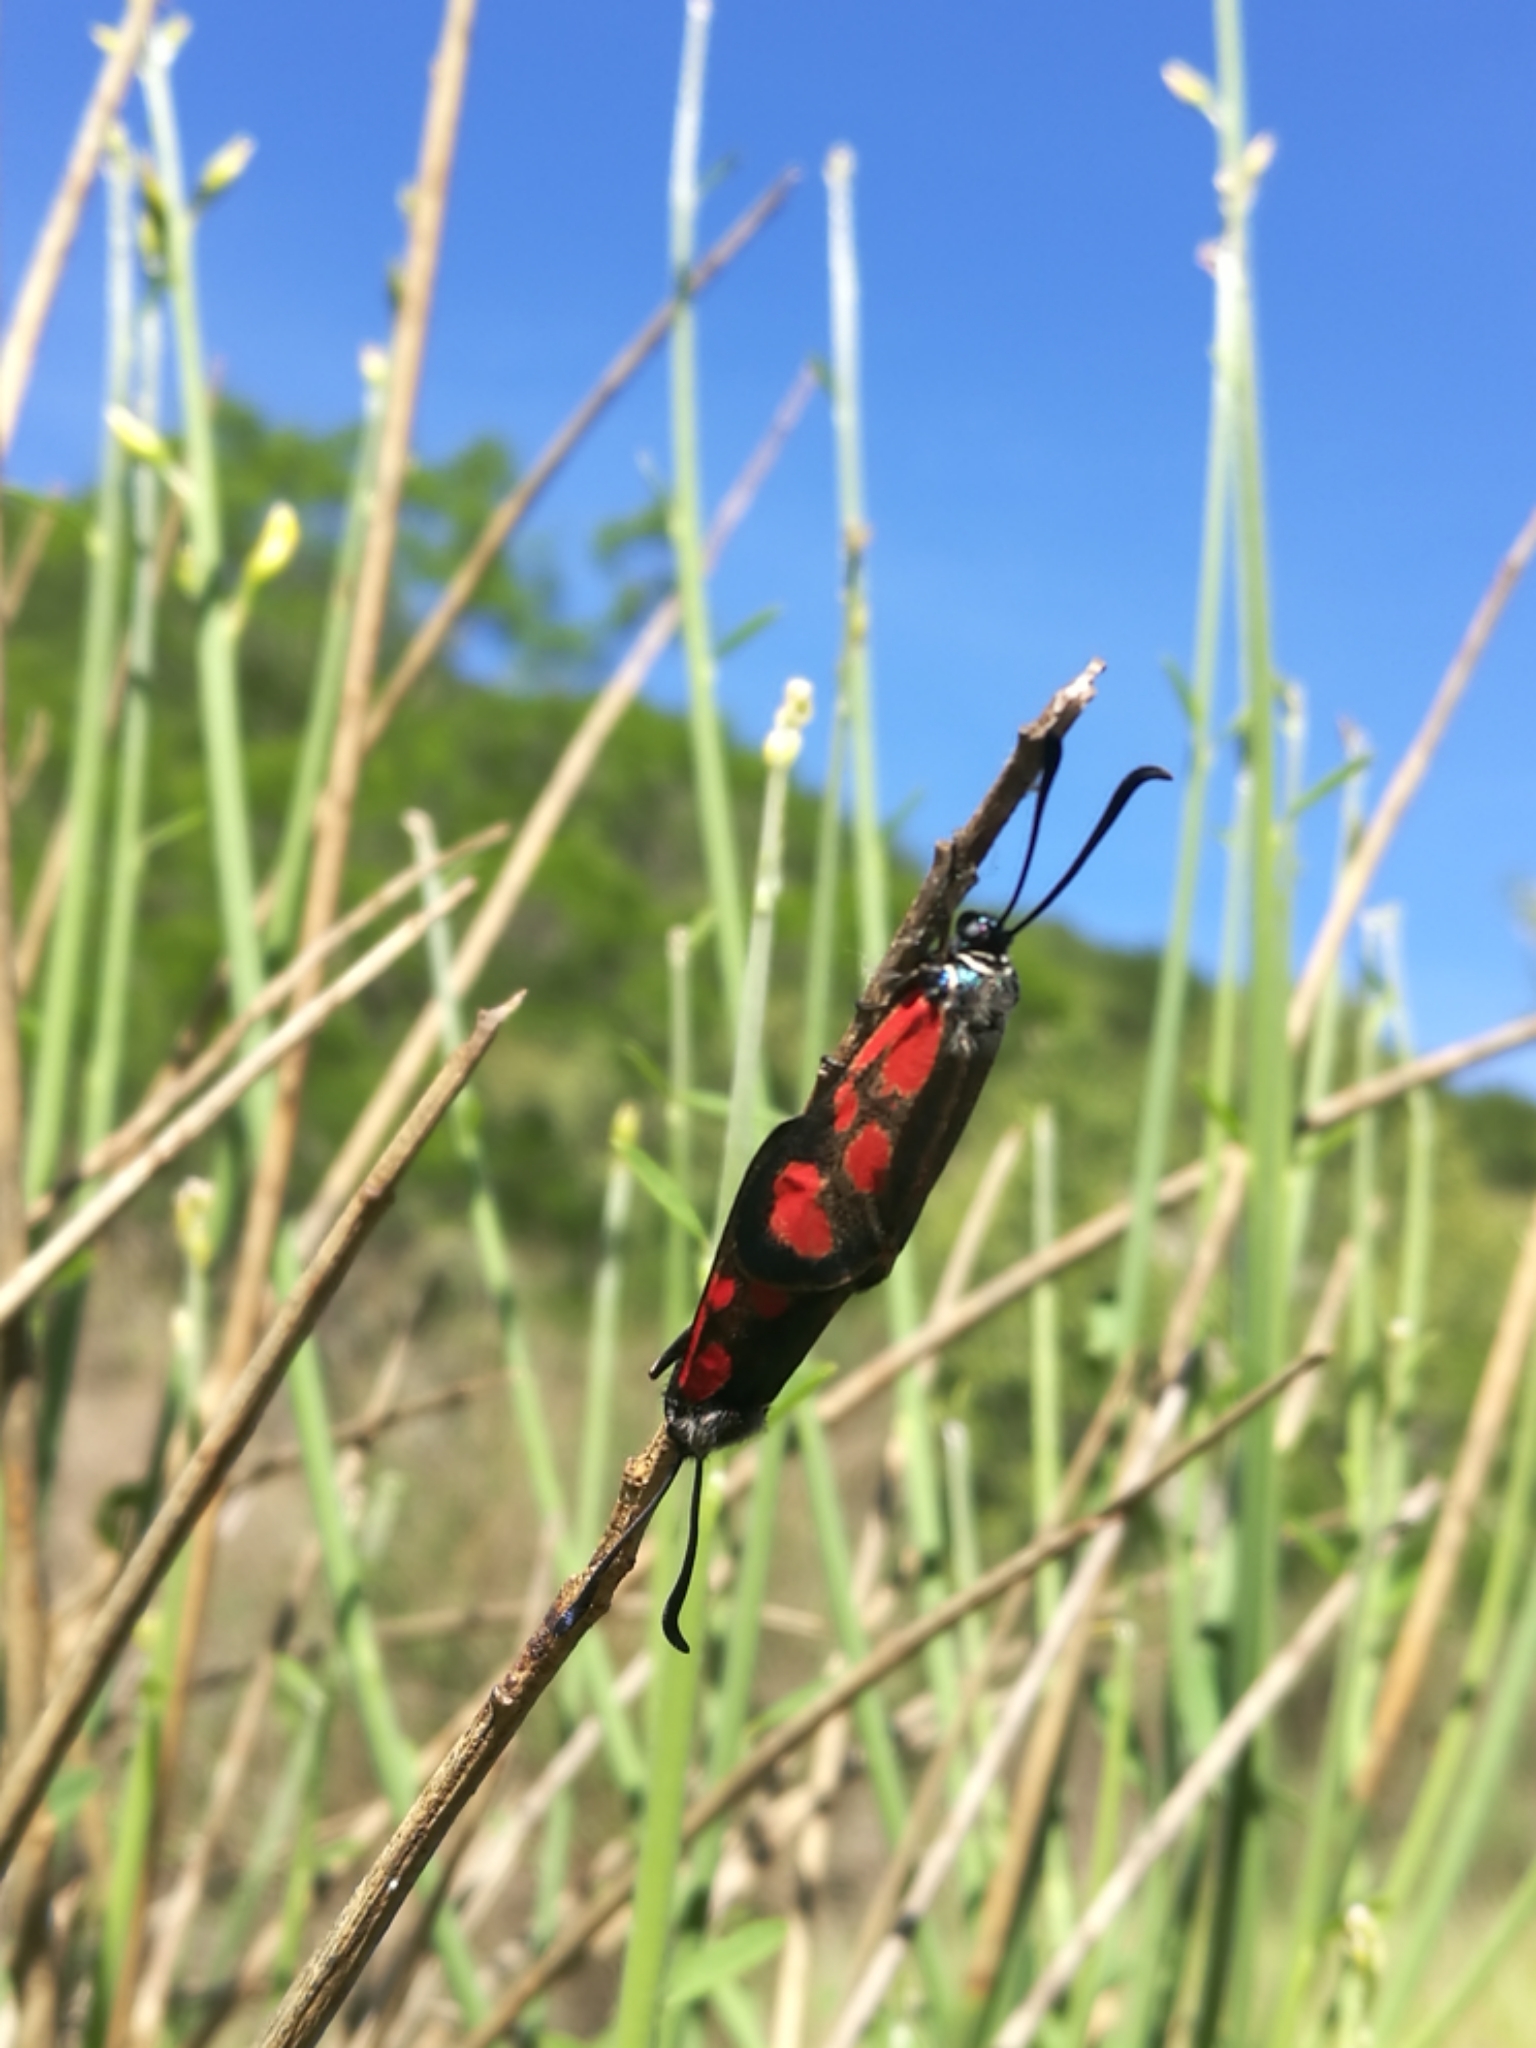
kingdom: Animalia
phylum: Arthropoda
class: Insecta
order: Lepidoptera
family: Zygaenidae
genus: Zygaena
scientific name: Zygaena loti
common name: Slender scotch burnet
